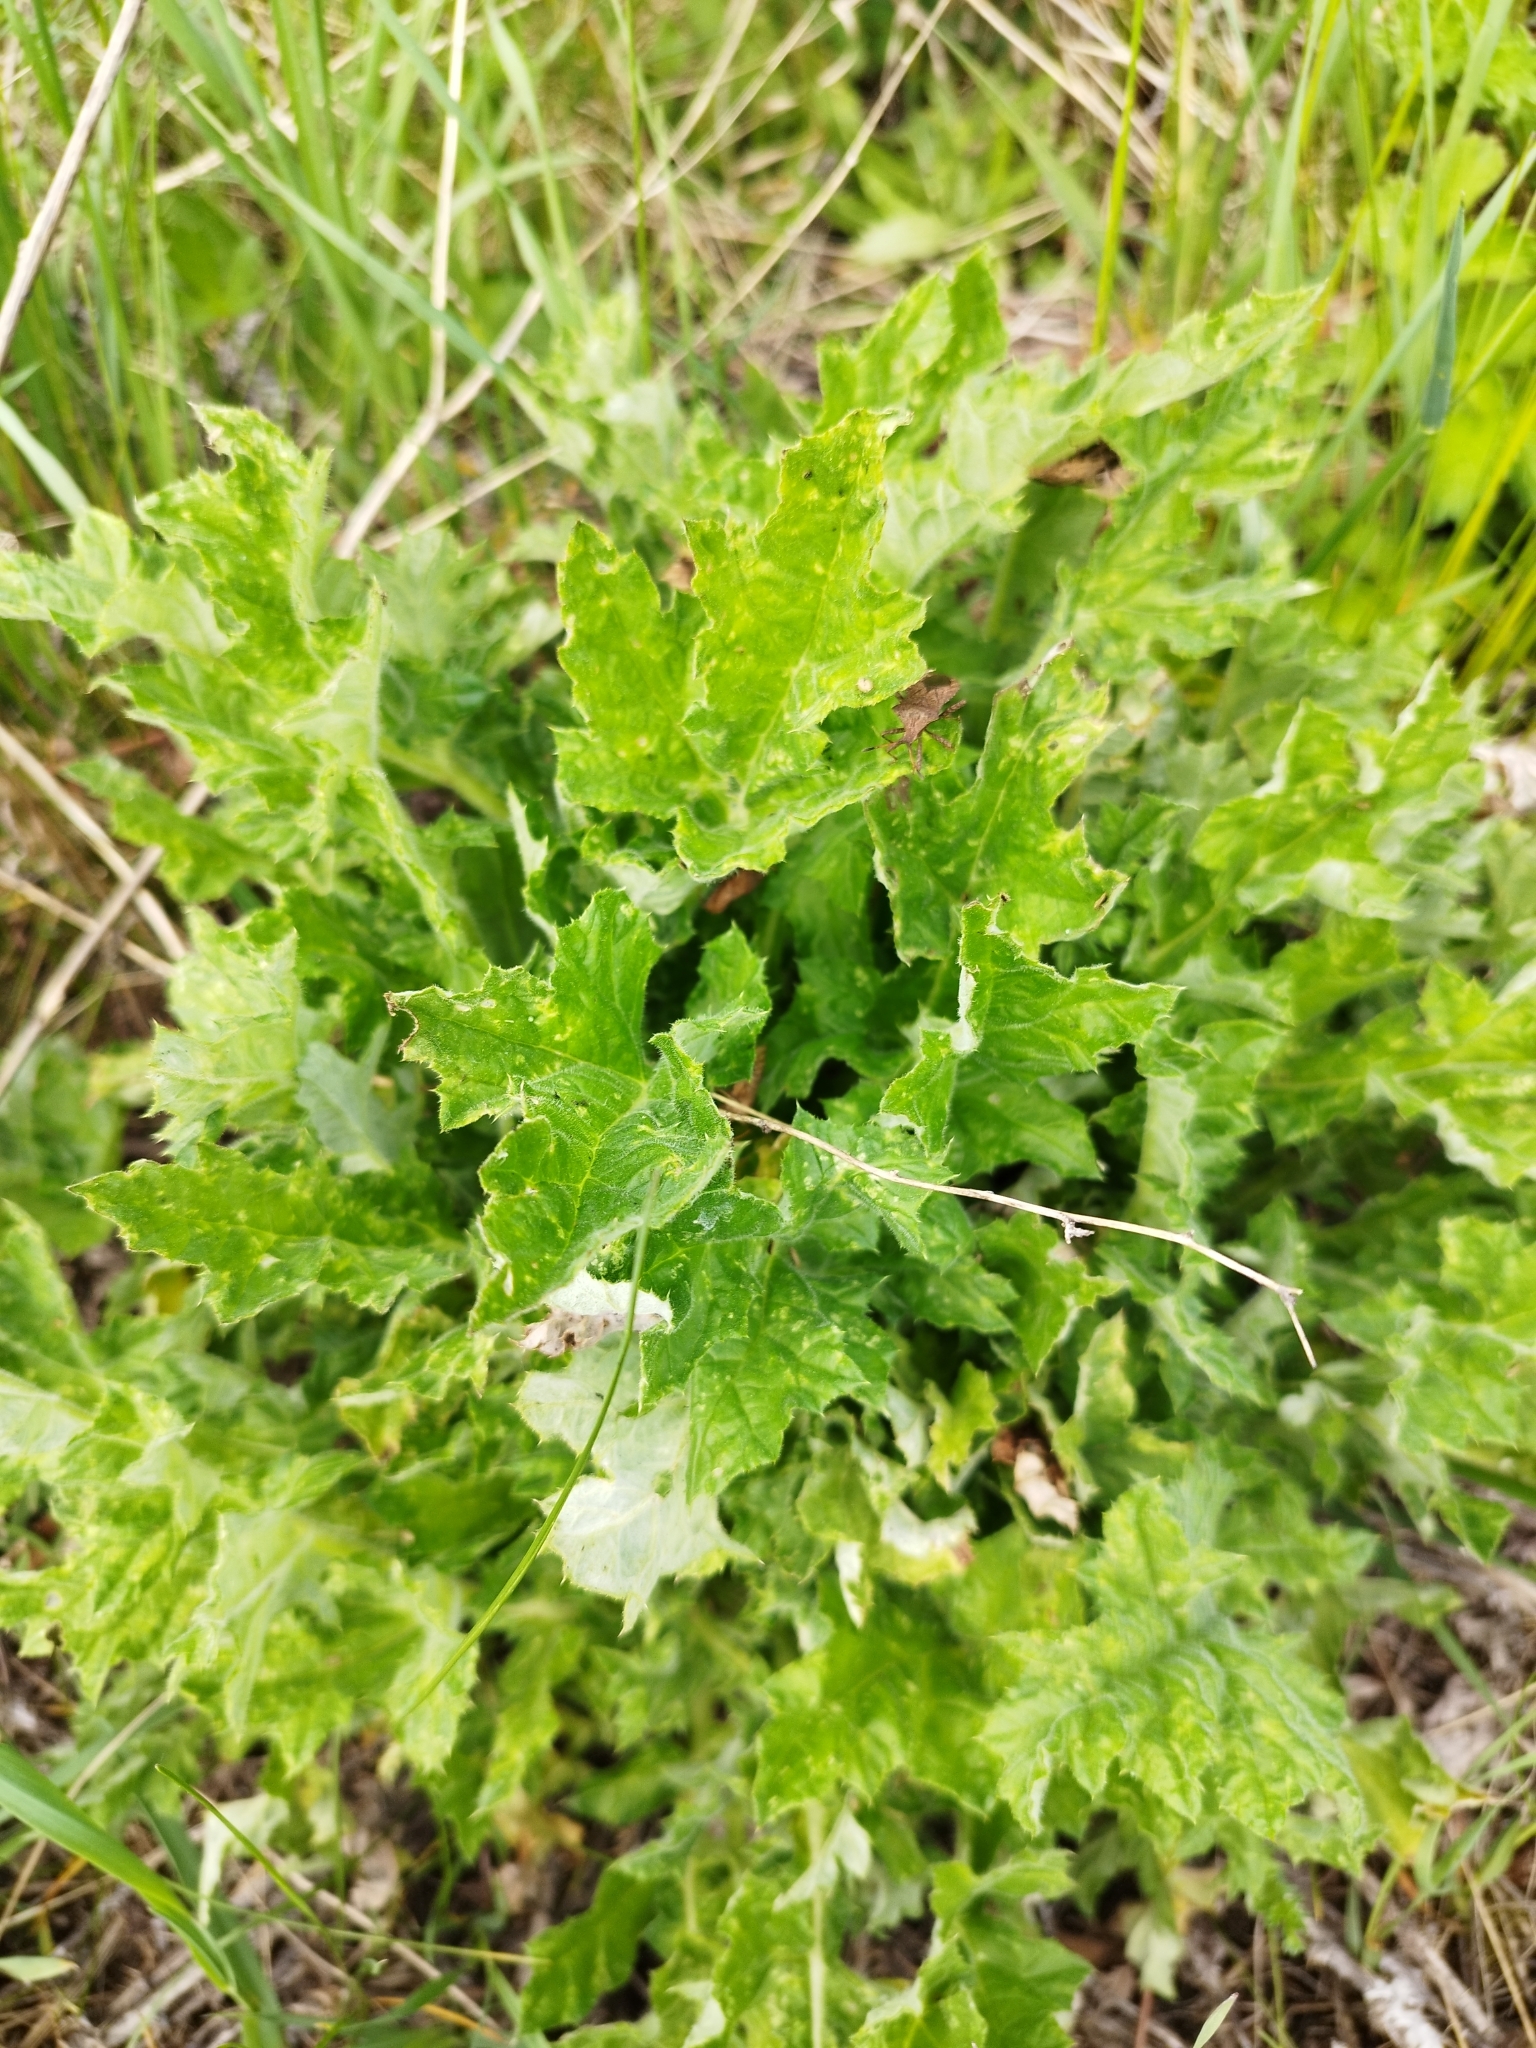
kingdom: Plantae
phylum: Tracheophyta
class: Magnoliopsida
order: Asterales
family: Asteraceae
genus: Echinops
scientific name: Echinops sphaerocephalus
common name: Glandular globe-thistle
